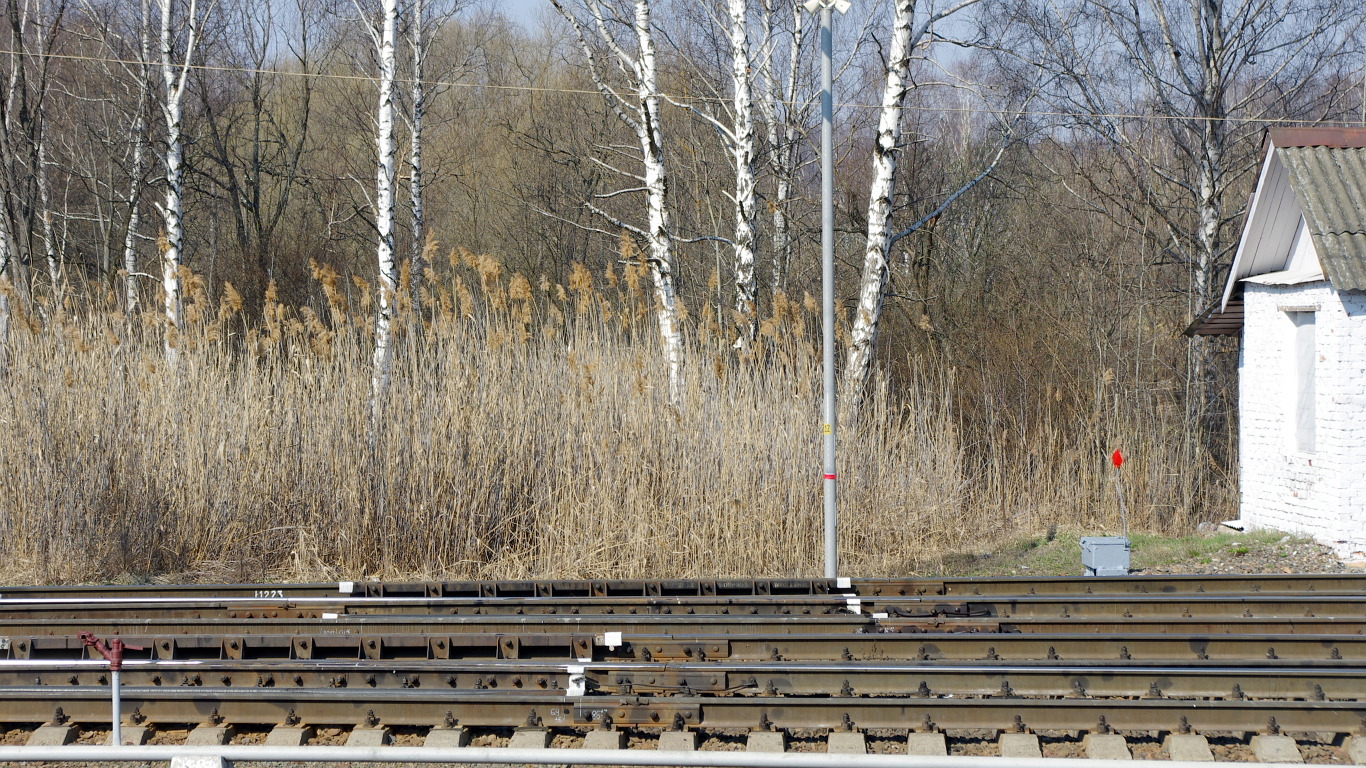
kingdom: Plantae
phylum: Tracheophyta
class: Liliopsida
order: Poales
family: Poaceae
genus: Phragmites
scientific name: Phragmites australis
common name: Common reed
